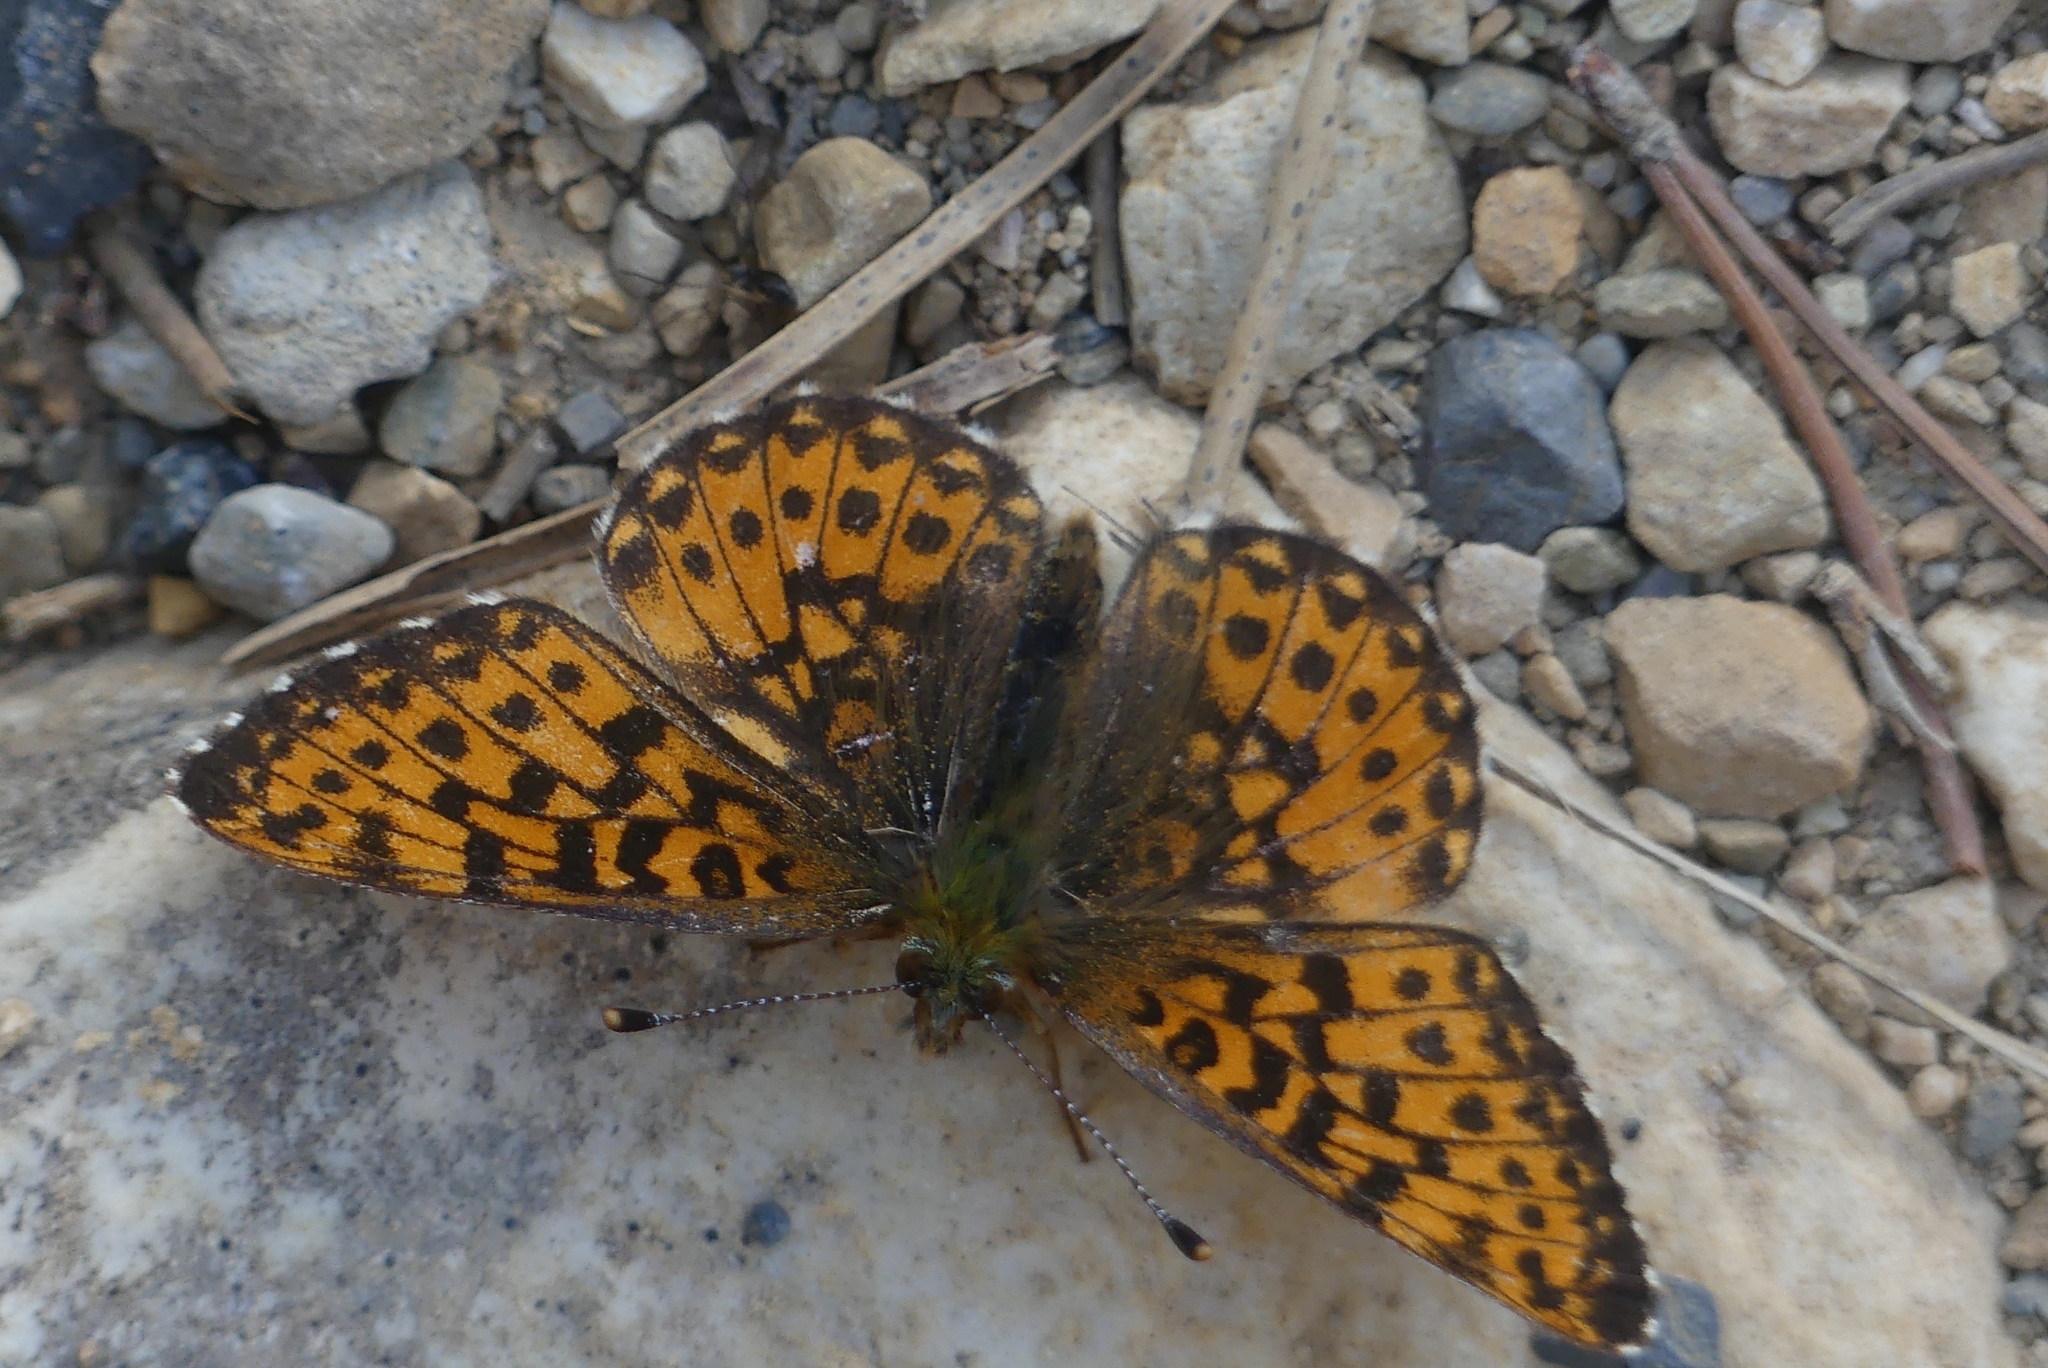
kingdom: Animalia
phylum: Arthropoda
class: Insecta
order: Lepidoptera
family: Nymphalidae
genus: Boloria
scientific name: Boloria chariclea
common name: Arctic fritillary
